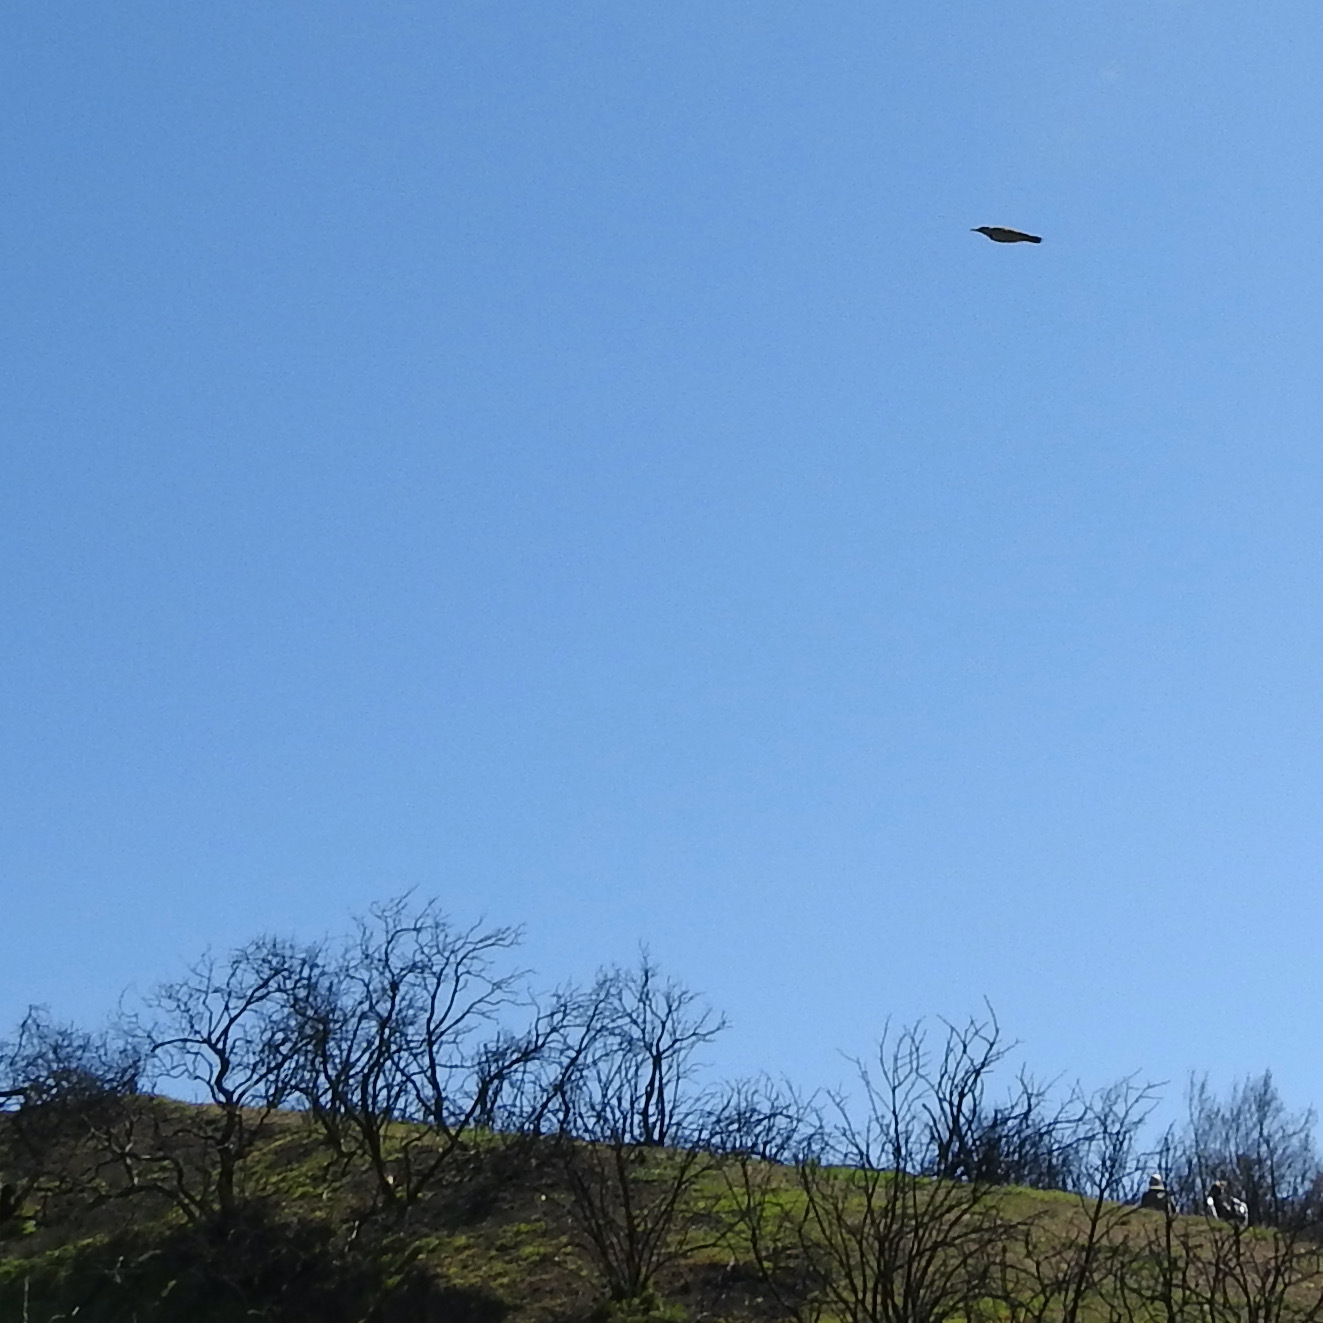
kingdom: Animalia
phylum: Chordata
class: Aves
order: Piciformes
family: Picidae
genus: Colaptes
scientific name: Colaptes auratus
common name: Northern flicker
